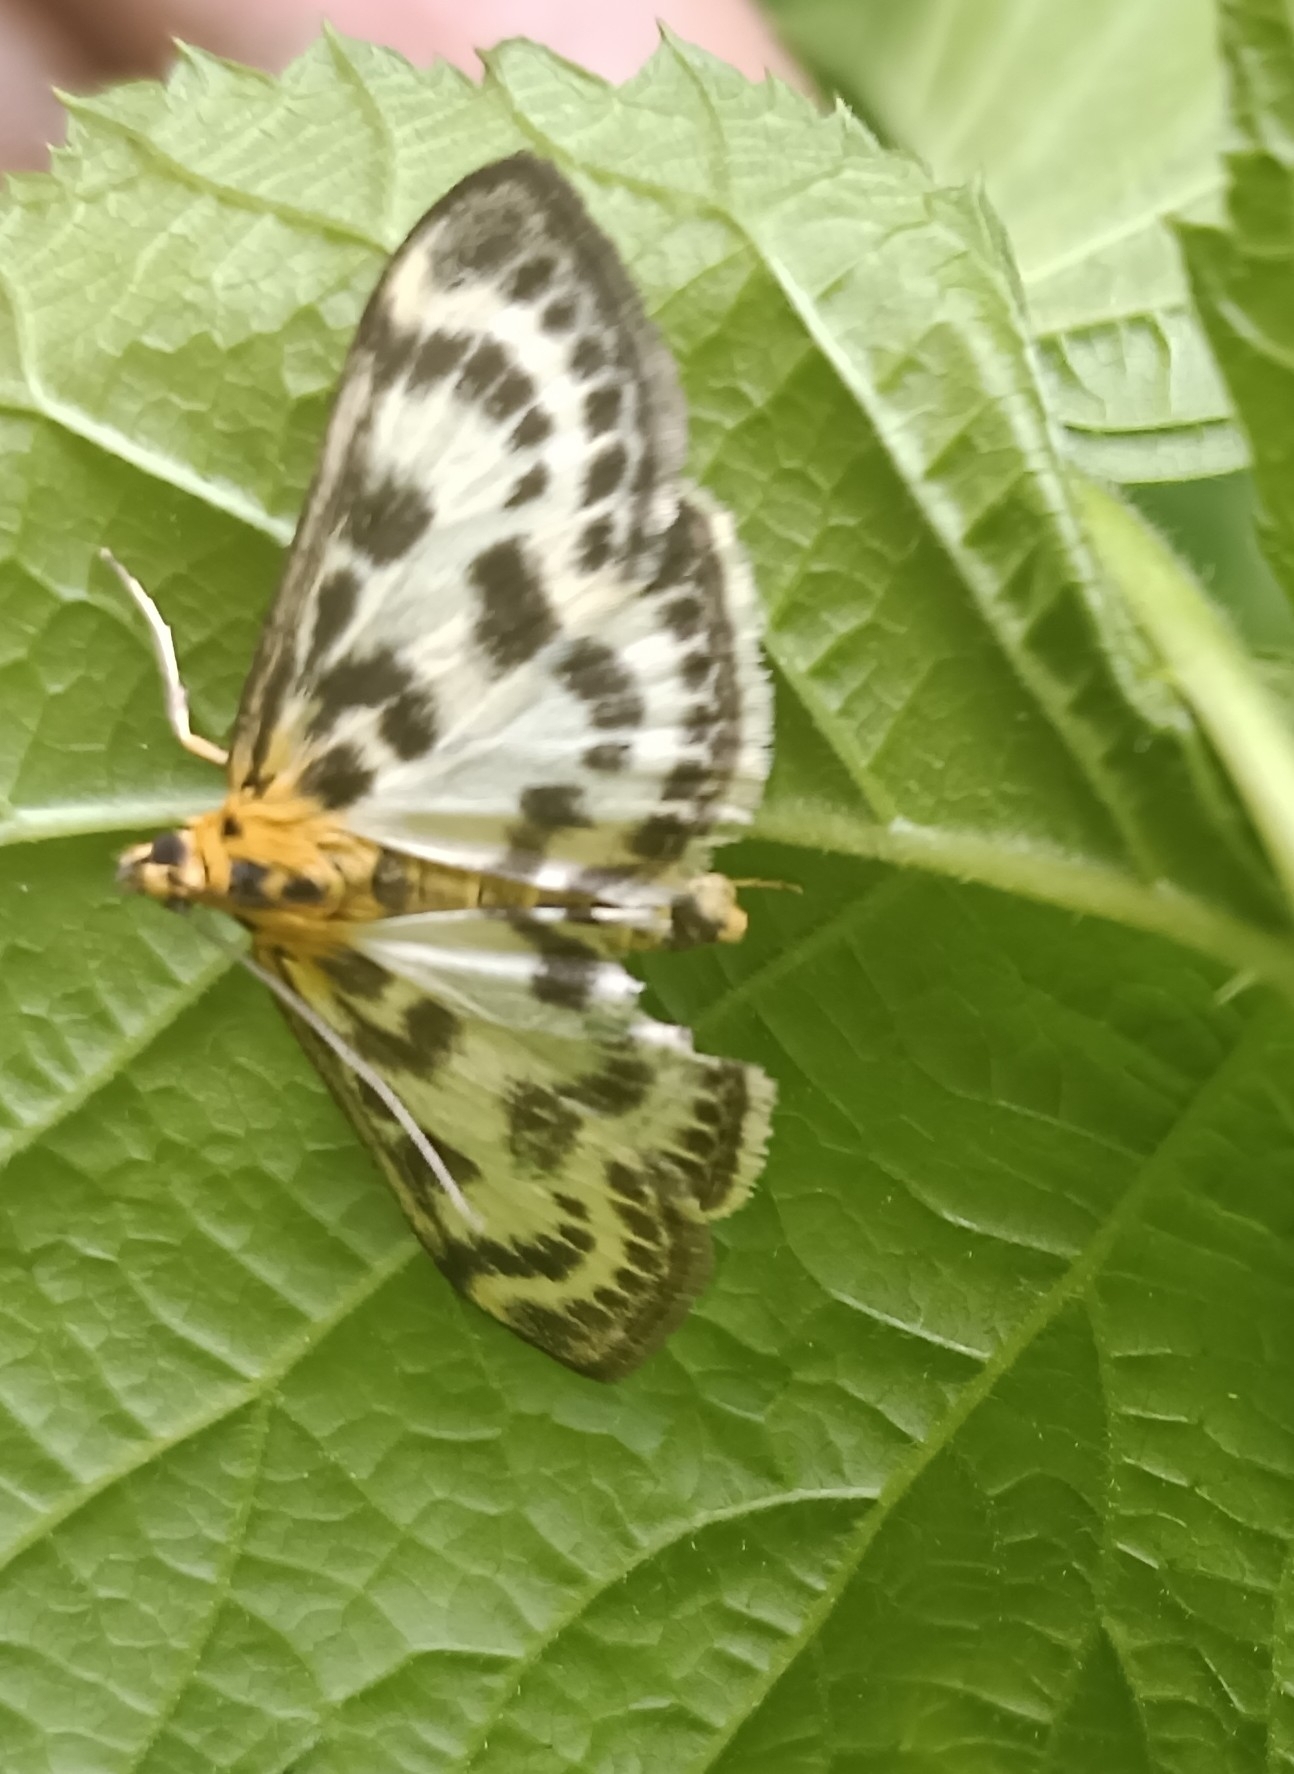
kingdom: Animalia
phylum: Arthropoda
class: Insecta
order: Lepidoptera
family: Crambidae
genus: Anania
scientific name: Anania hortulata
